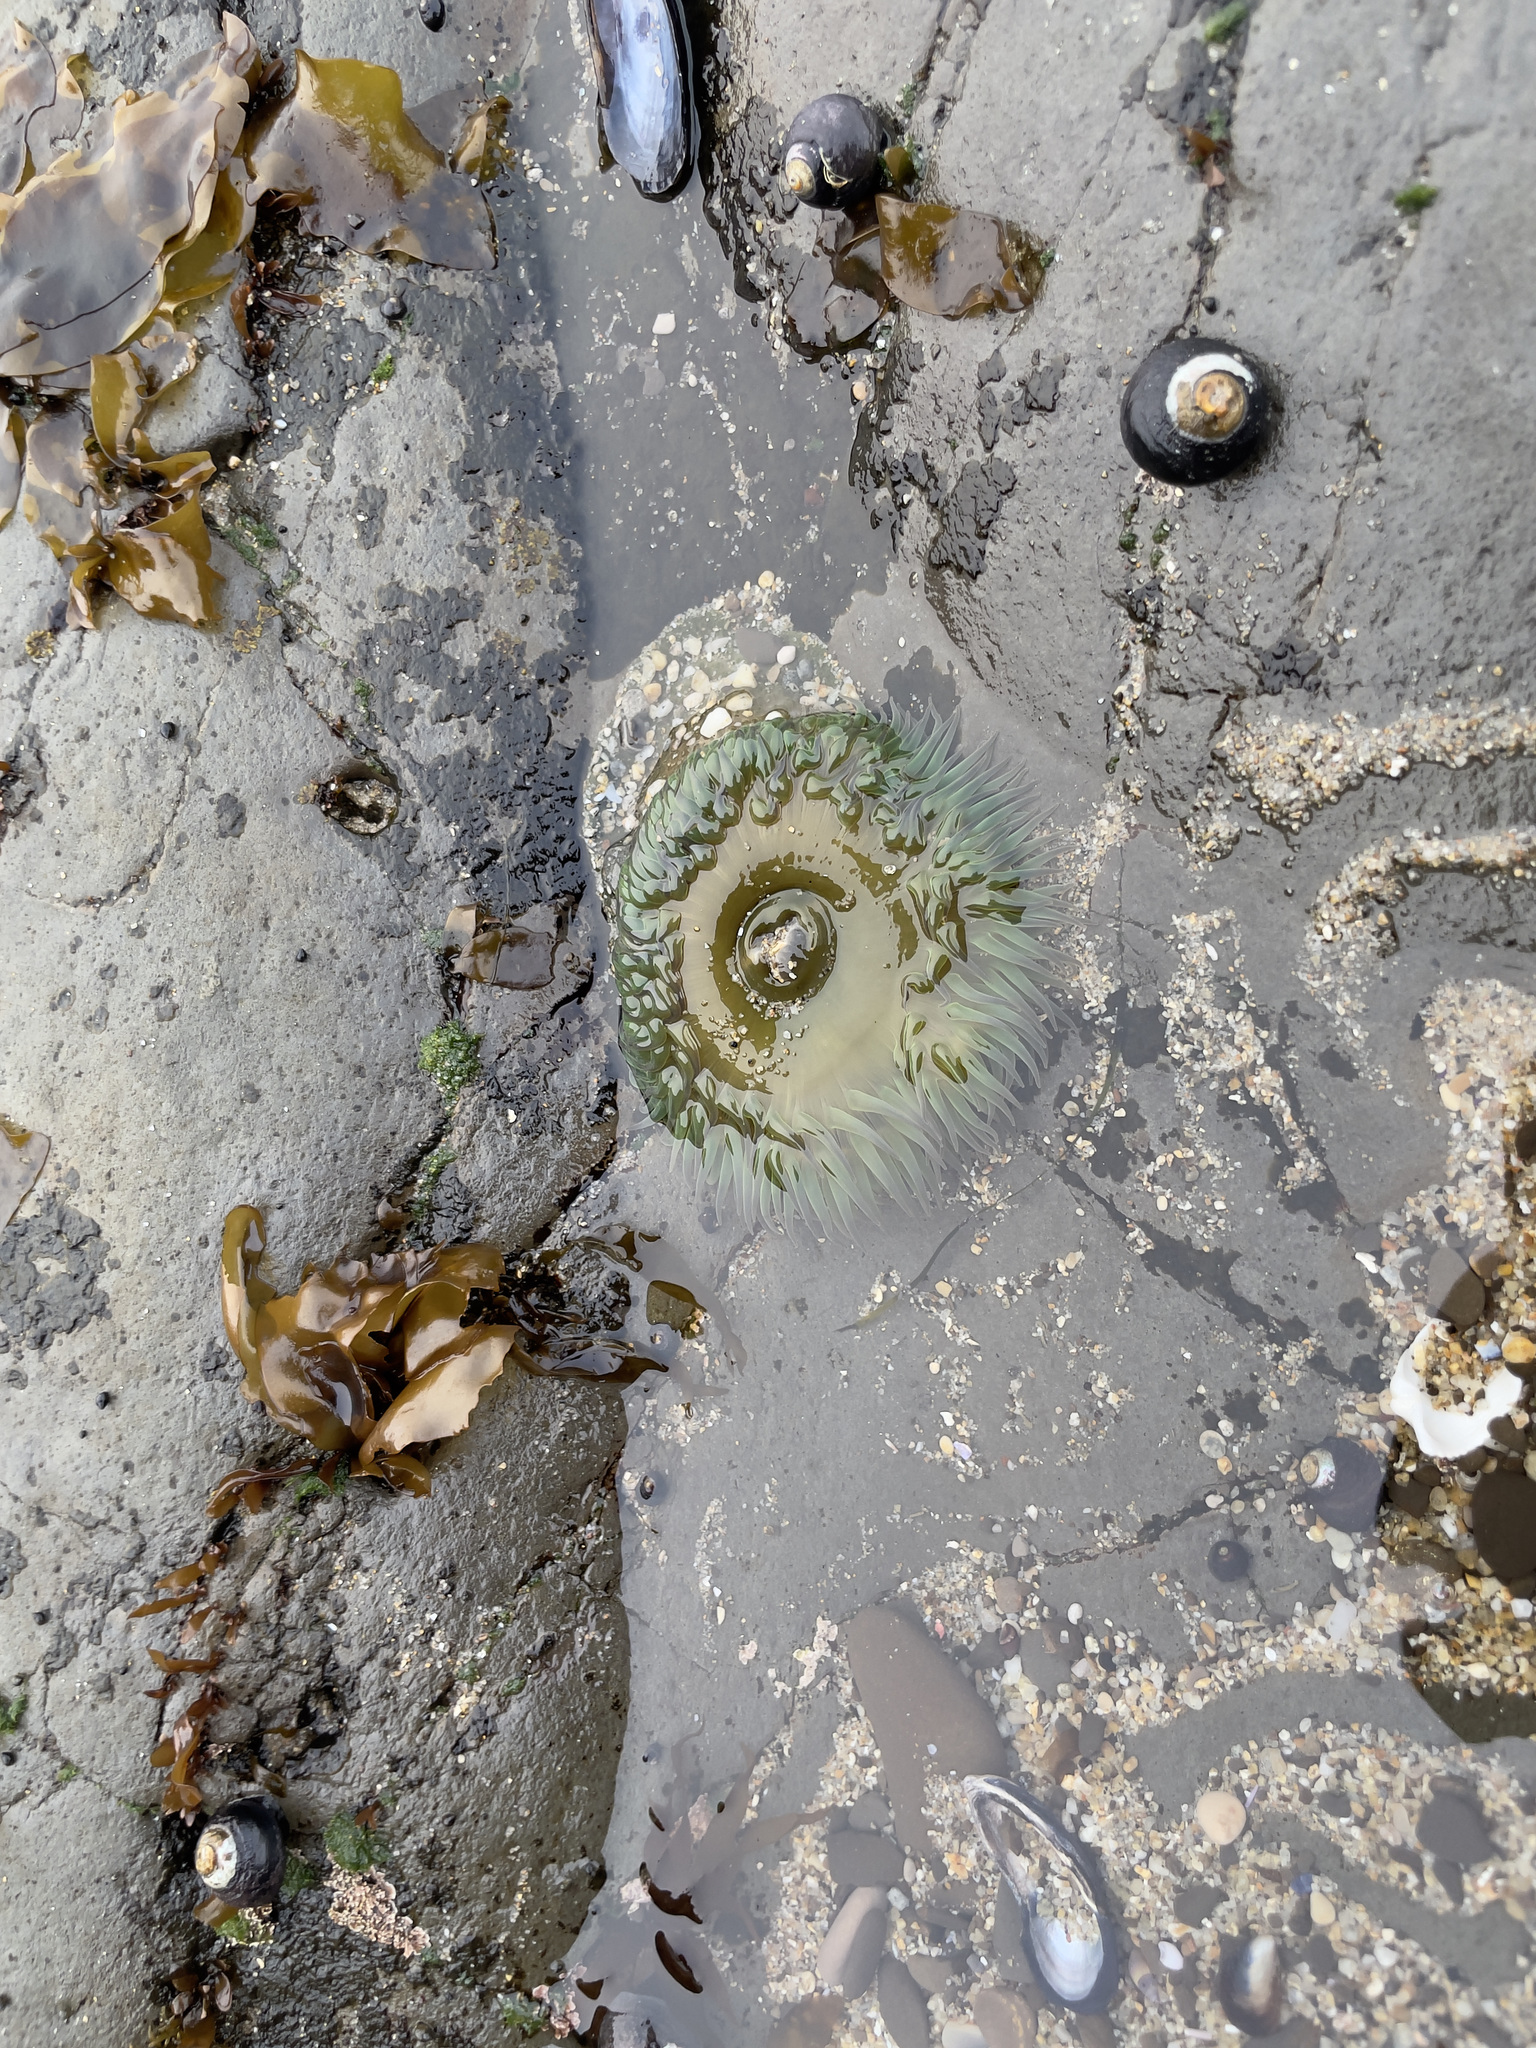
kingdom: Animalia
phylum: Cnidaria
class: Anthozoa
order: Actiniaria
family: Actiniidae
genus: Anthopleura
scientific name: Anthopleura xanthogrammica
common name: Giant green anemone
